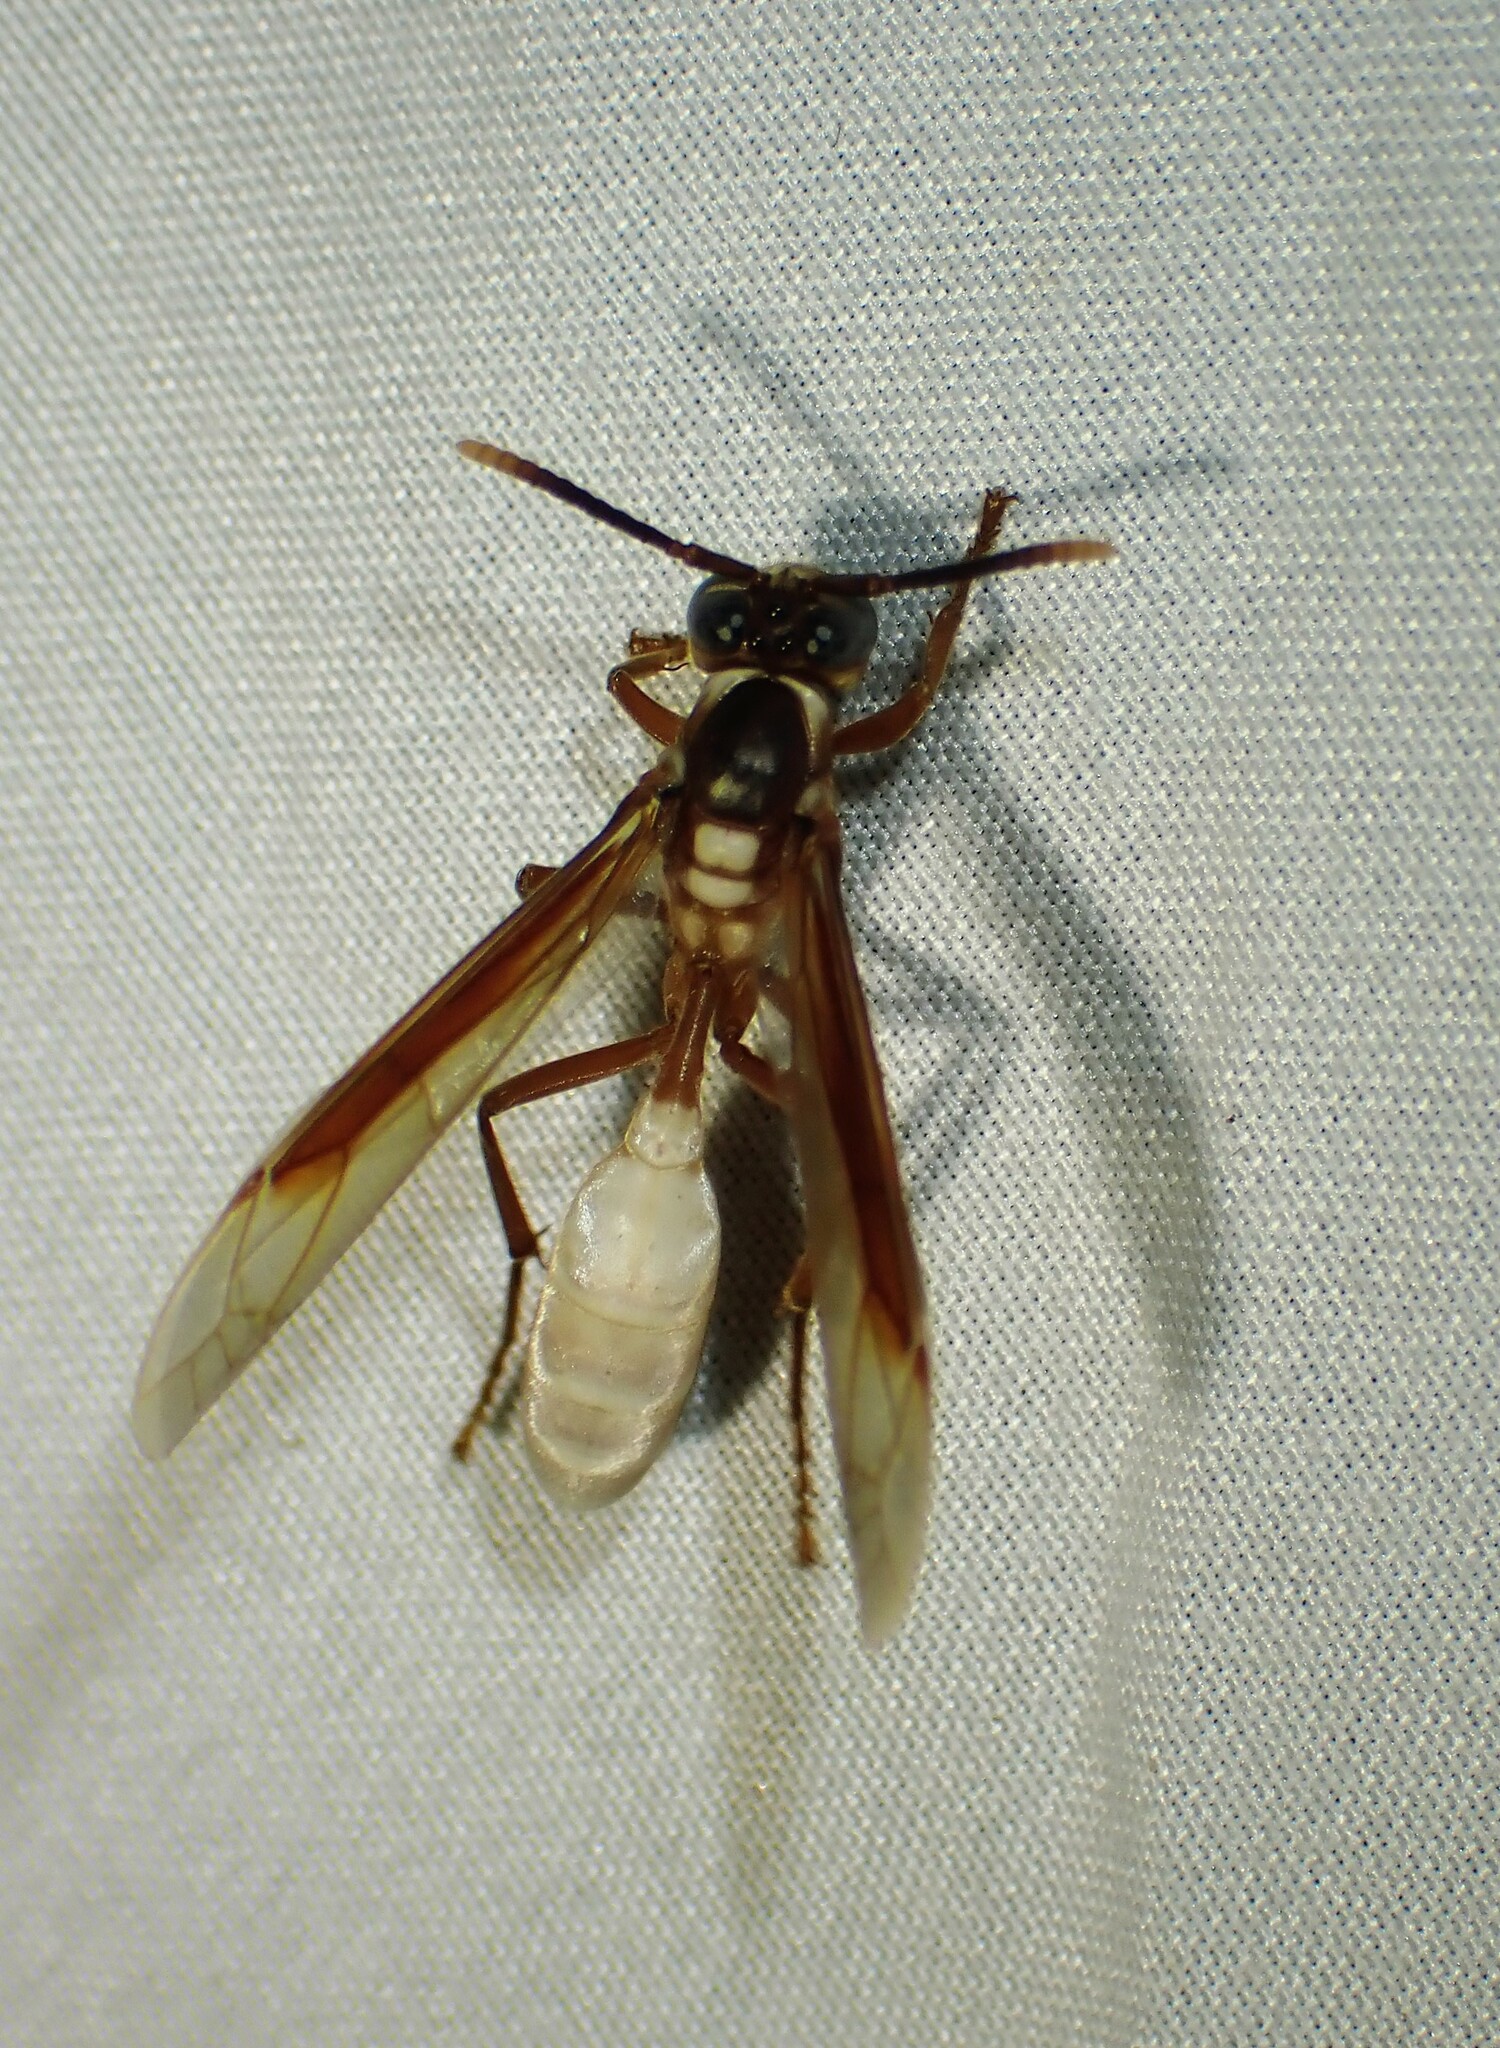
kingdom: Animalia
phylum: Arthropoda
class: Insecta
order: Hymenoptera
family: Vespidae
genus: Apoica
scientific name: Apoica pallens
